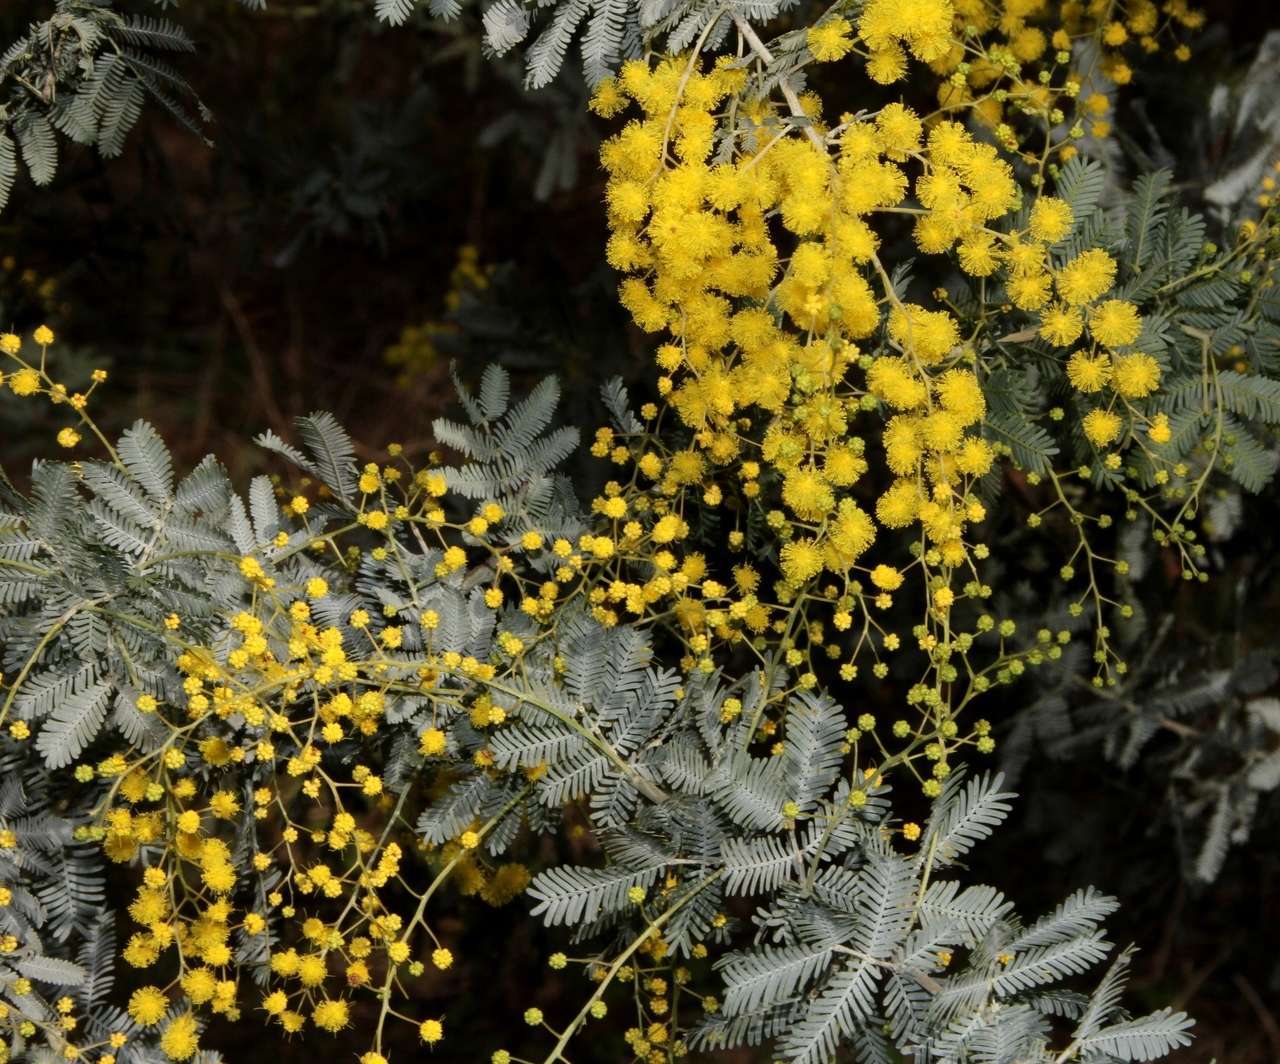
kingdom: Plantae
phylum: Tracheophyta
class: Magnoliopsida
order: Fabales
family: Fabaceae
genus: Acacia
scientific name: Acacia baileyana
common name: Cootamundra wattle
